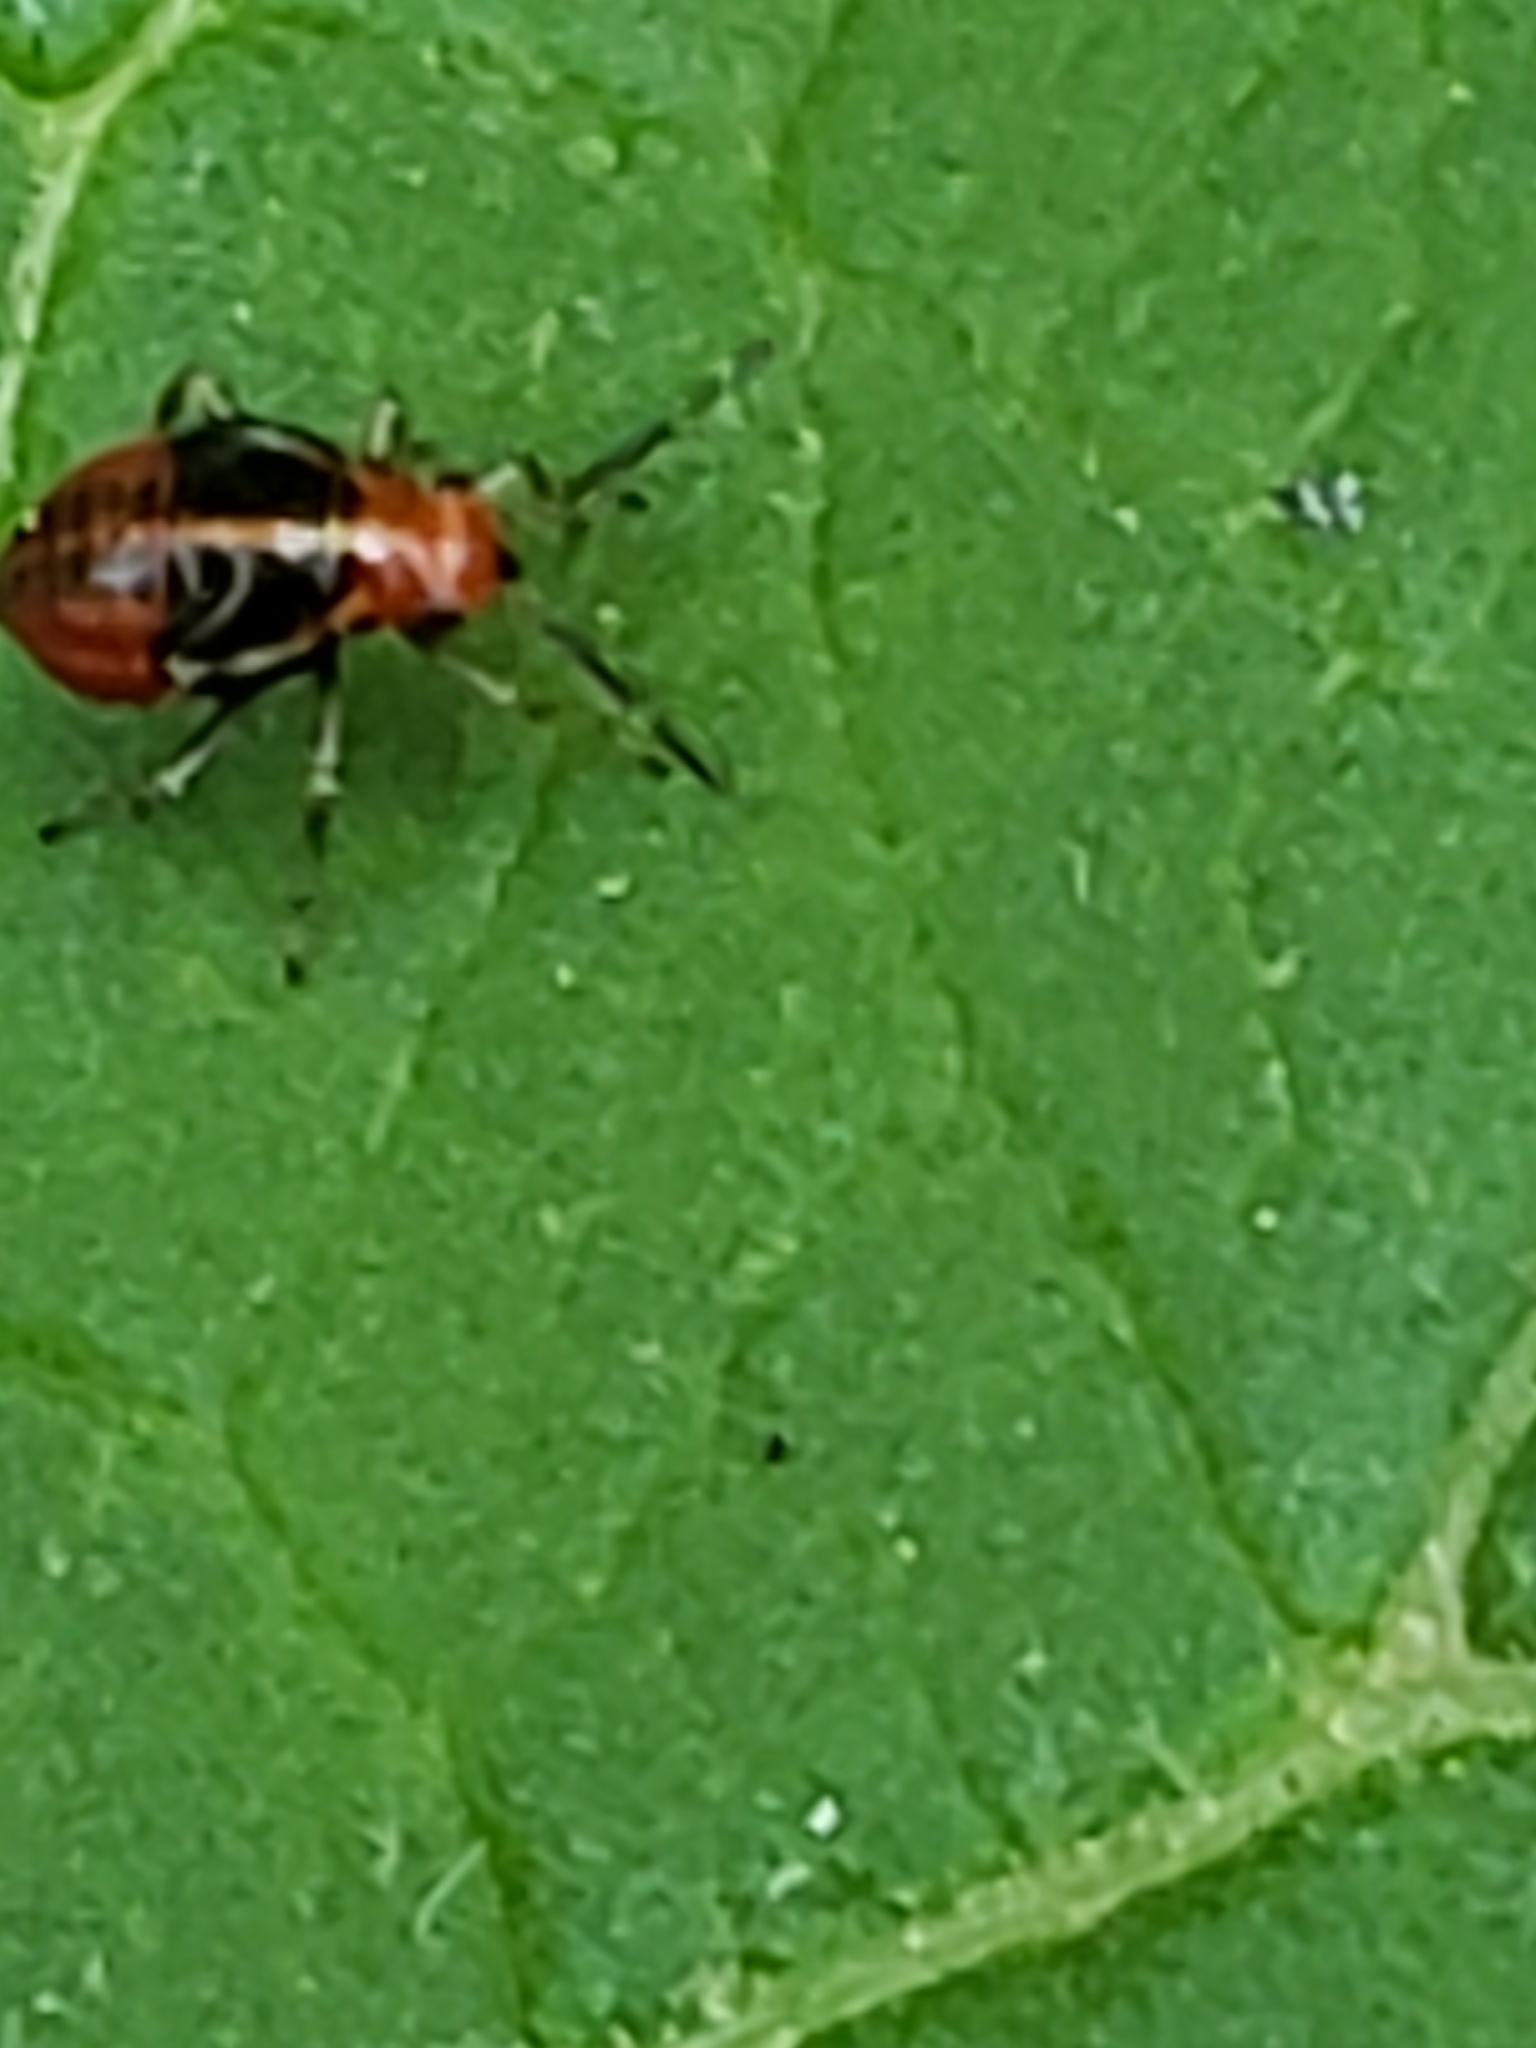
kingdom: Animalia
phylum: Arthropoda
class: Insecta
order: Hemiptera
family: Miridae
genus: Poecilocapsus
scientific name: Poecilocapsus lineatus
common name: Four-lined plant bug
